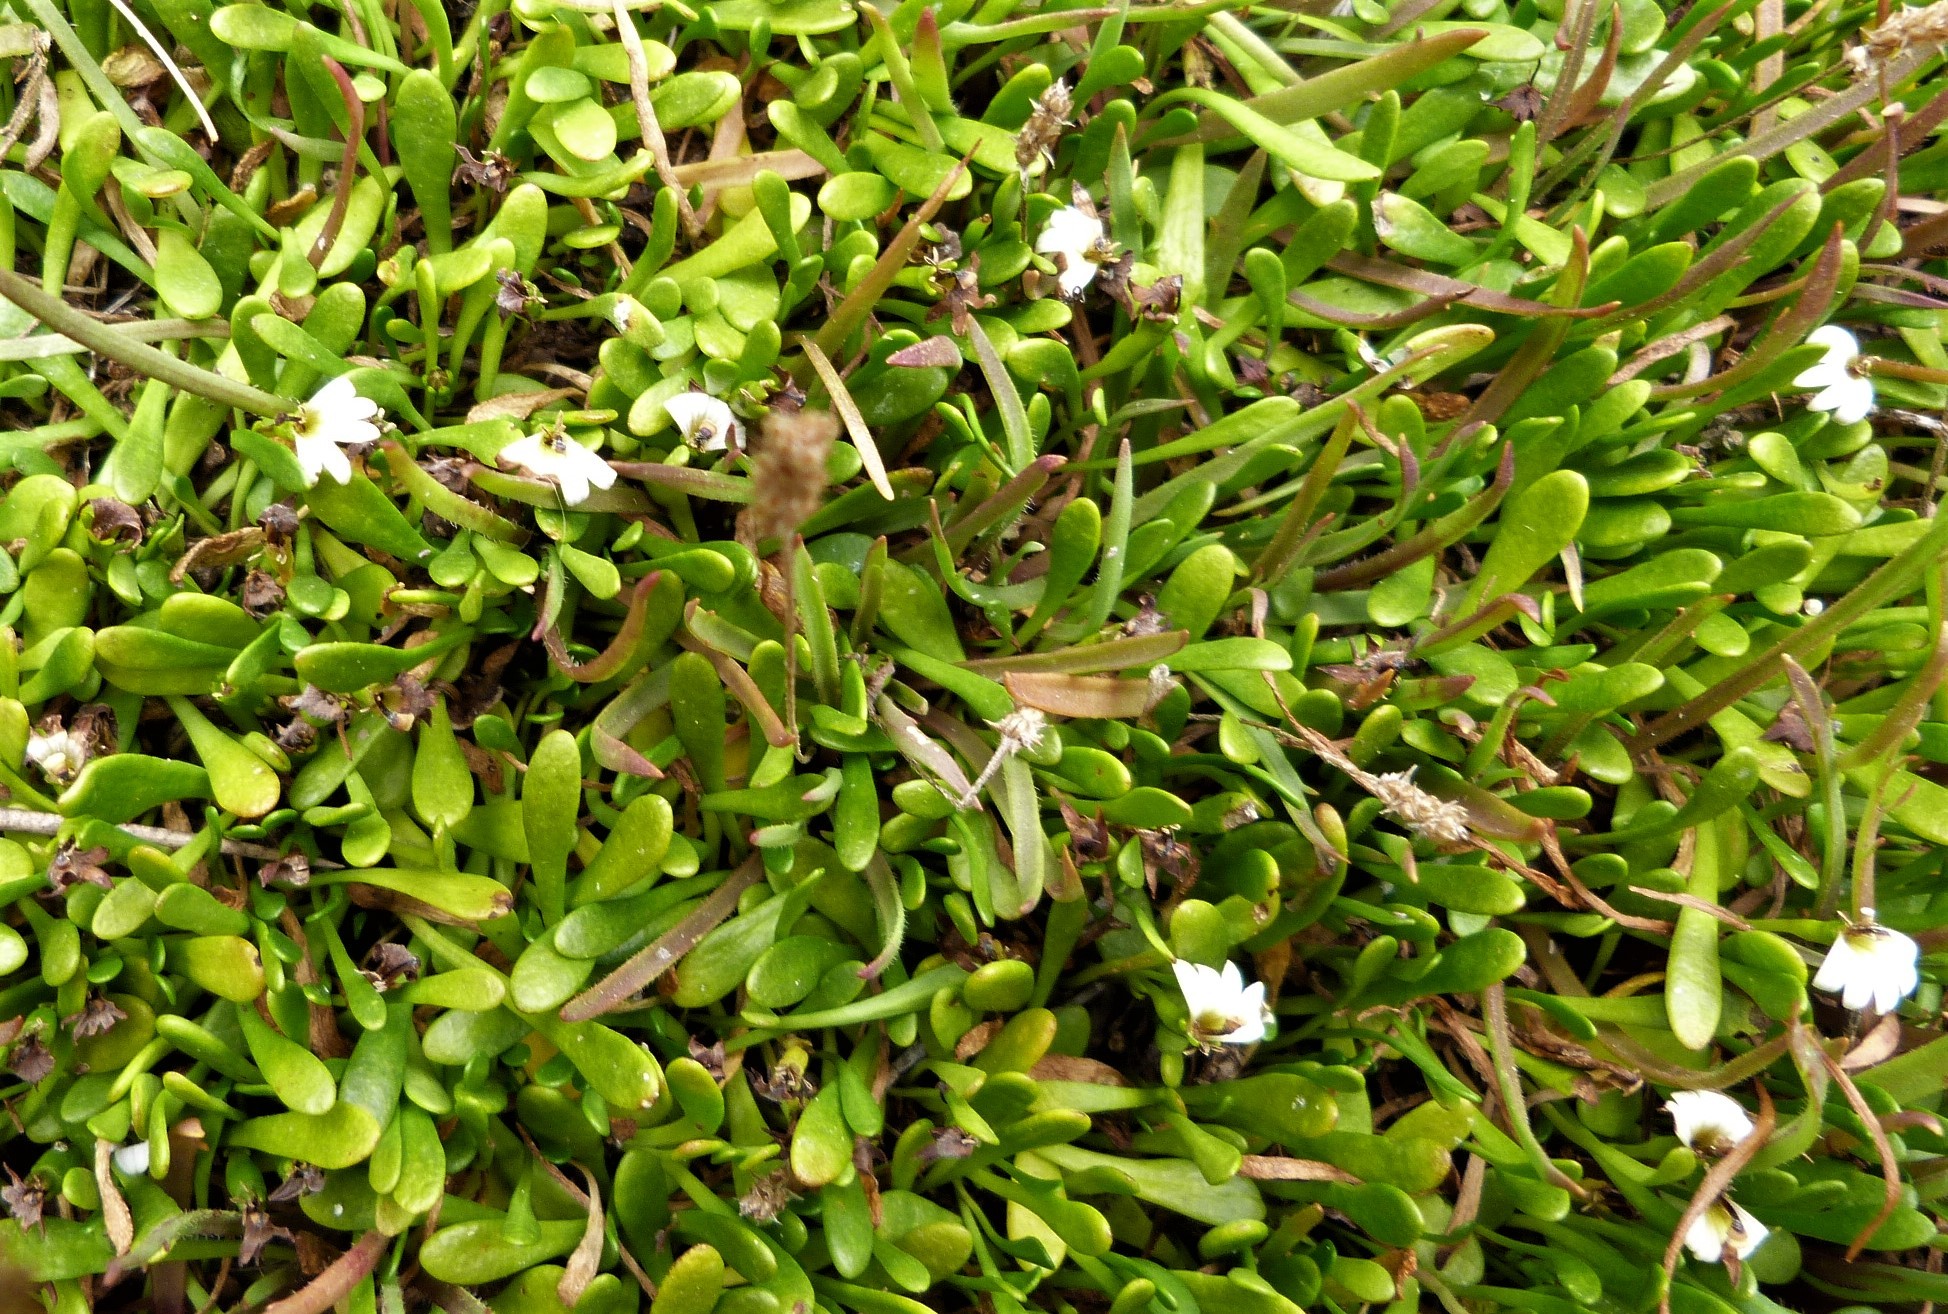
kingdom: Plantae
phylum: Tracheophyta
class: Magnoliopsida
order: Asterales
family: Goodeniaceae
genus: Goodenia
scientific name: Goodenia radicans
